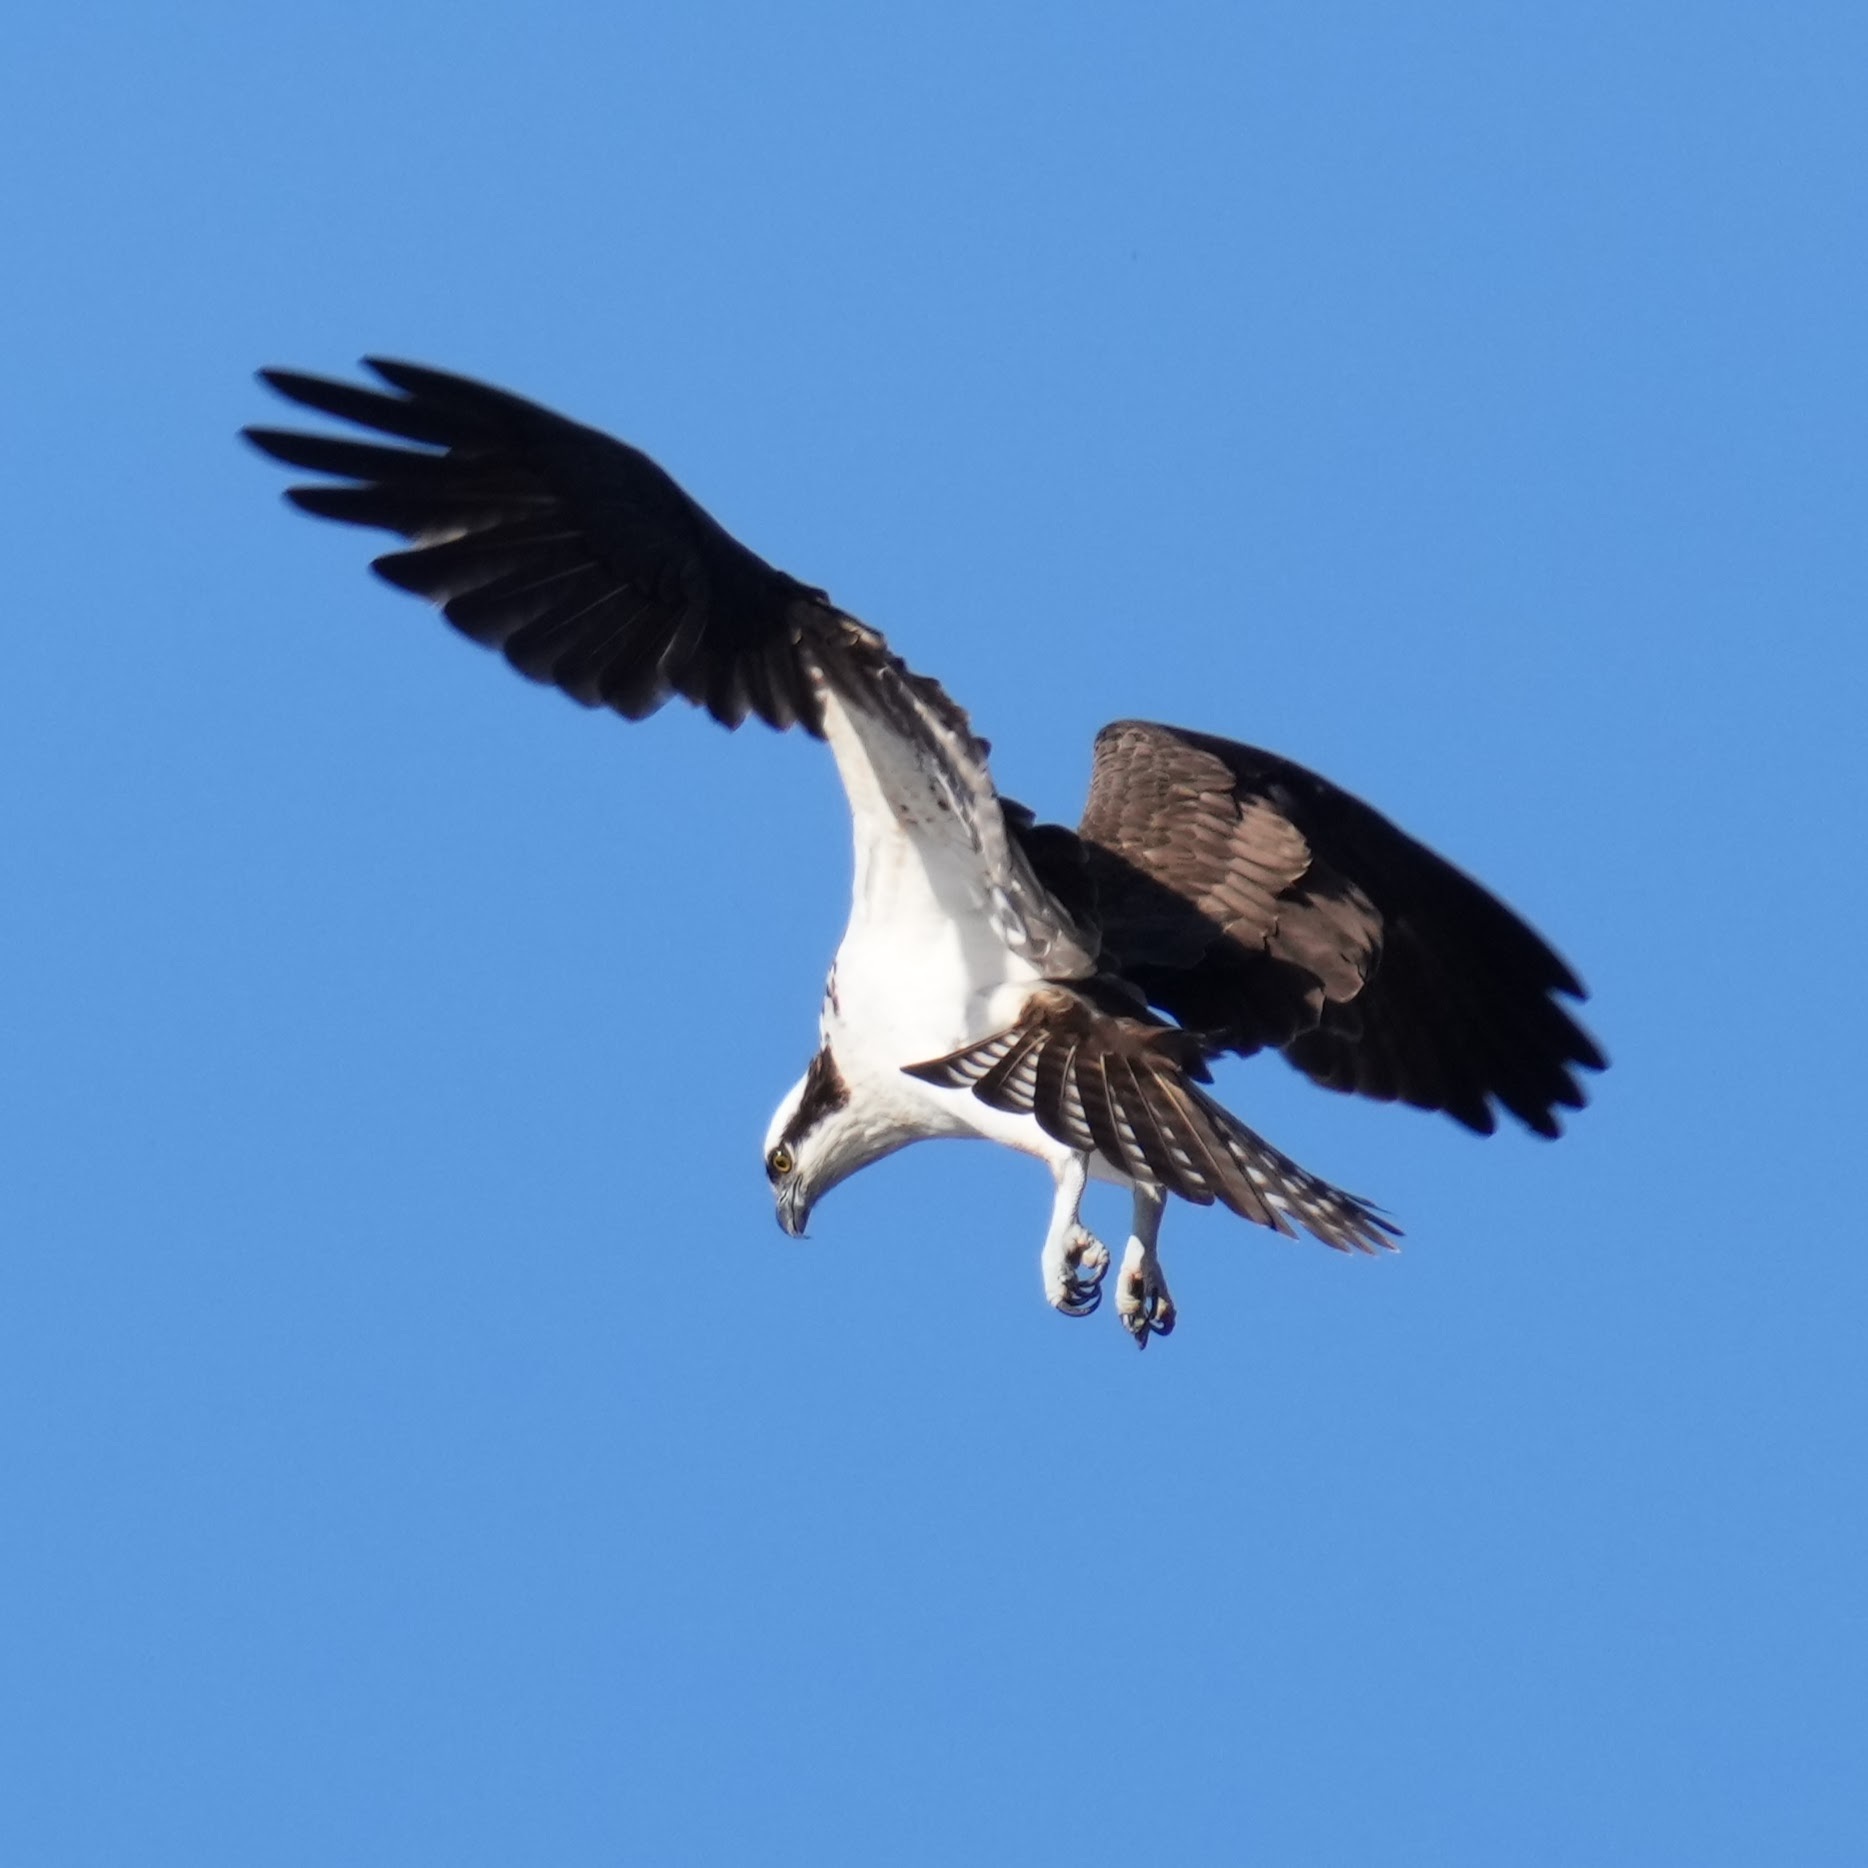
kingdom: Animalia
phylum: Chordata
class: Aves
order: Accipitriformes
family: Pandionidae
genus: Pandion
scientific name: Pandion haliaetus
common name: Osprey
